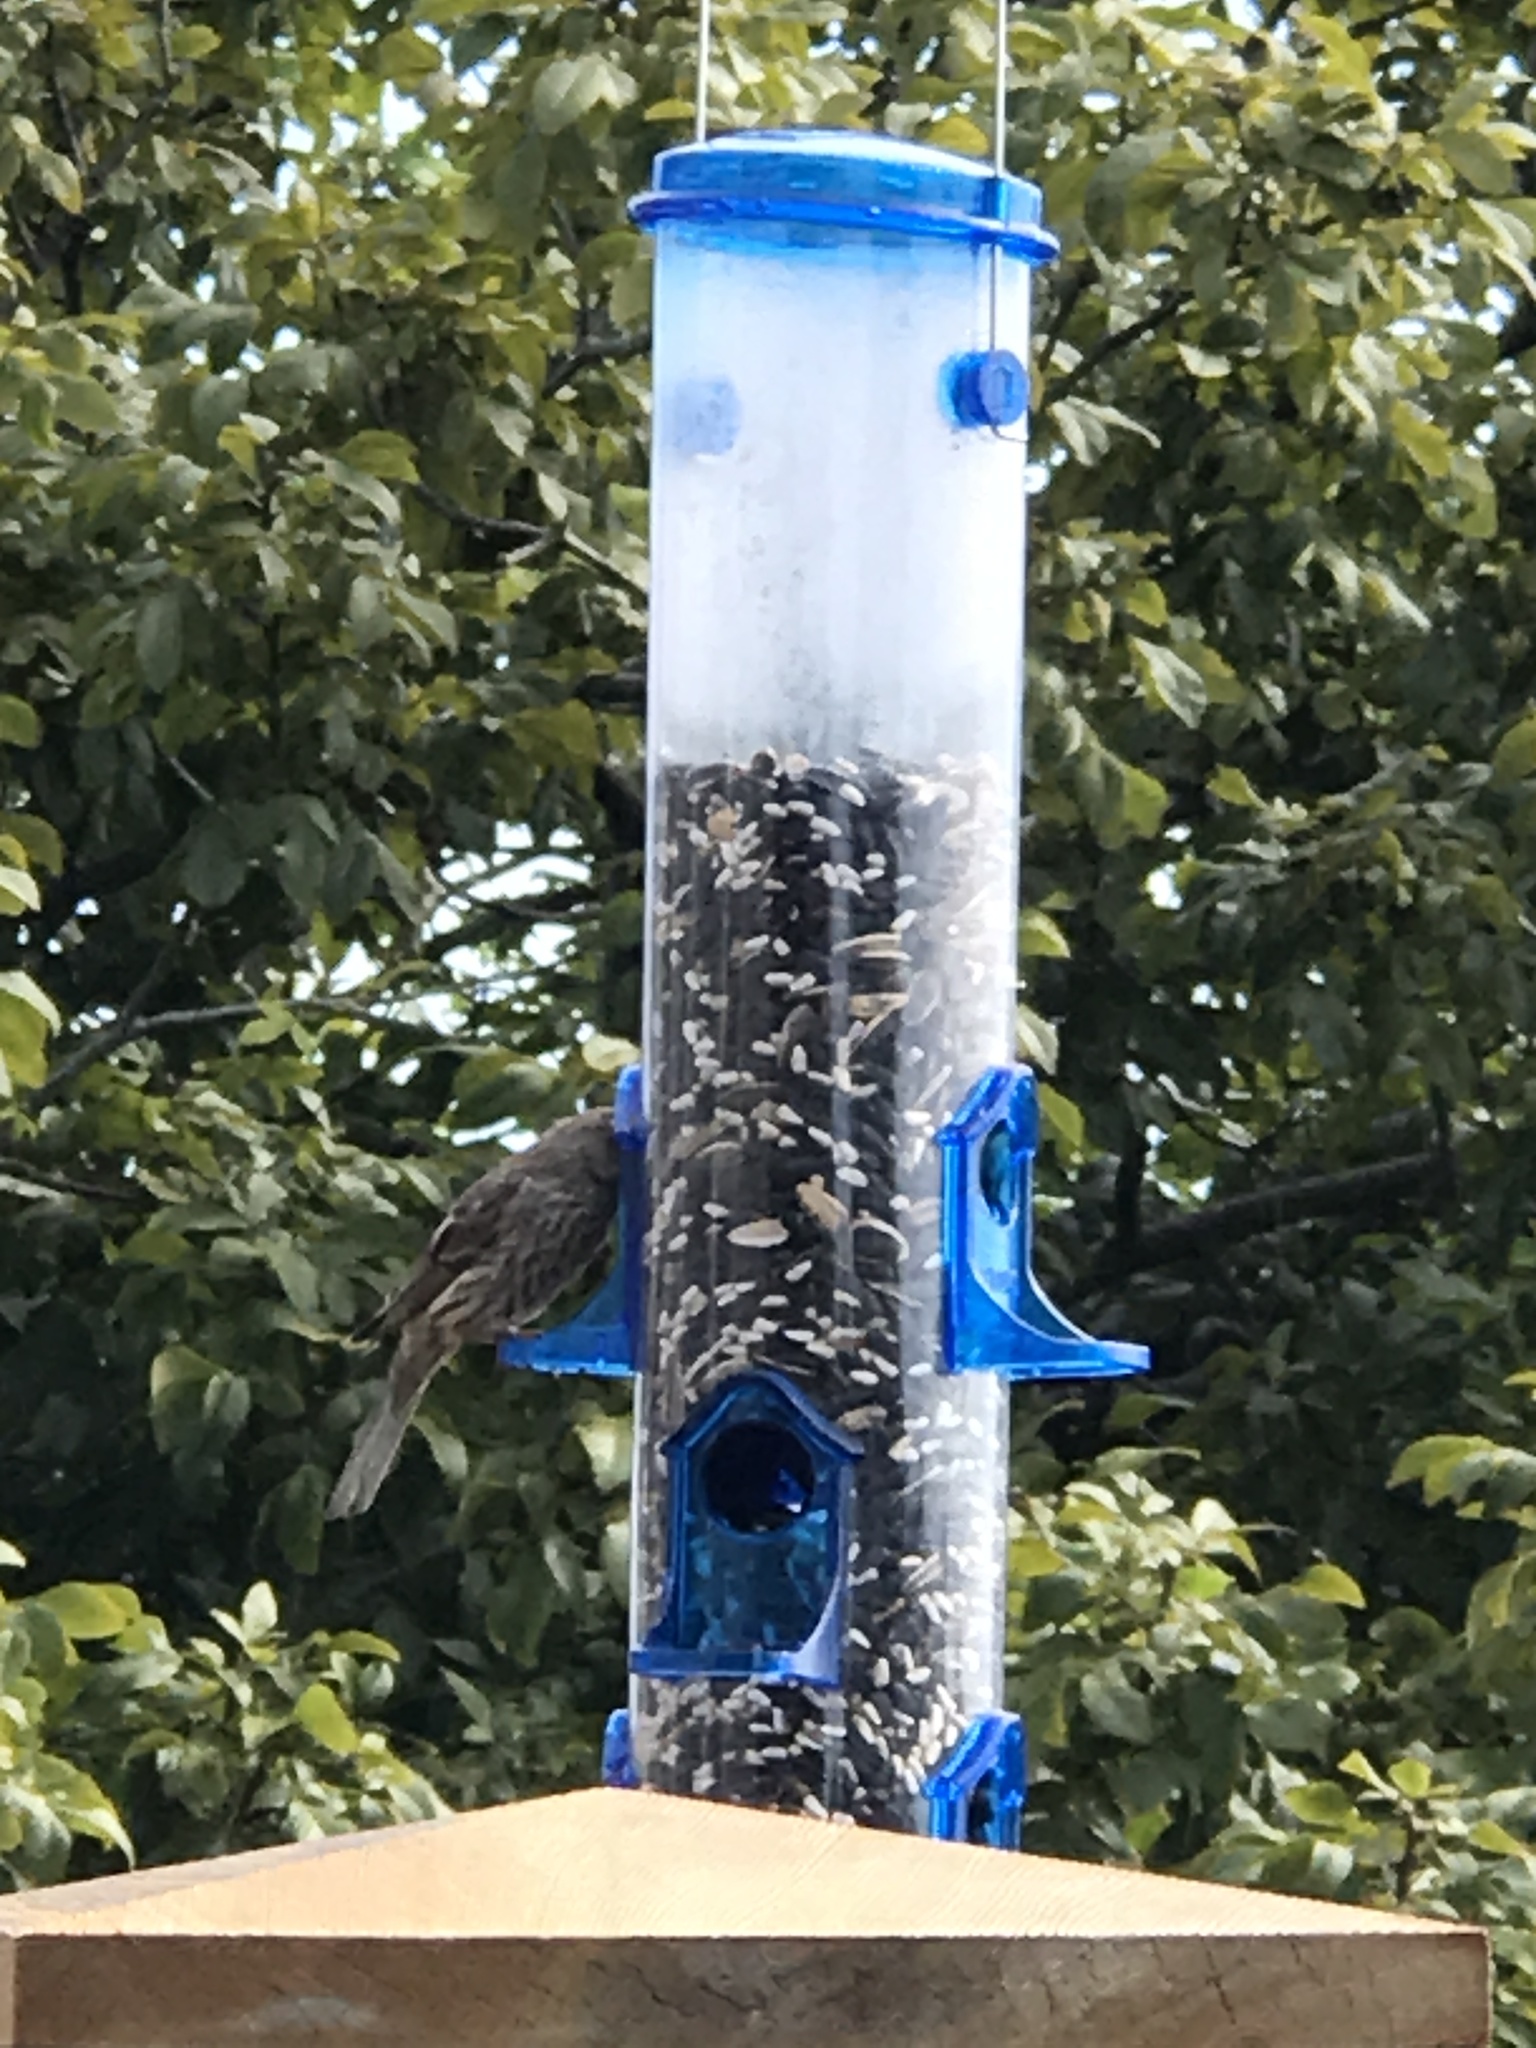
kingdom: Animalia
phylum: Chordata
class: Aves
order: Passeriformes
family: Fringillidae
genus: Haemorhous
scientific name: Haemorhous mexicanus
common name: House finch
